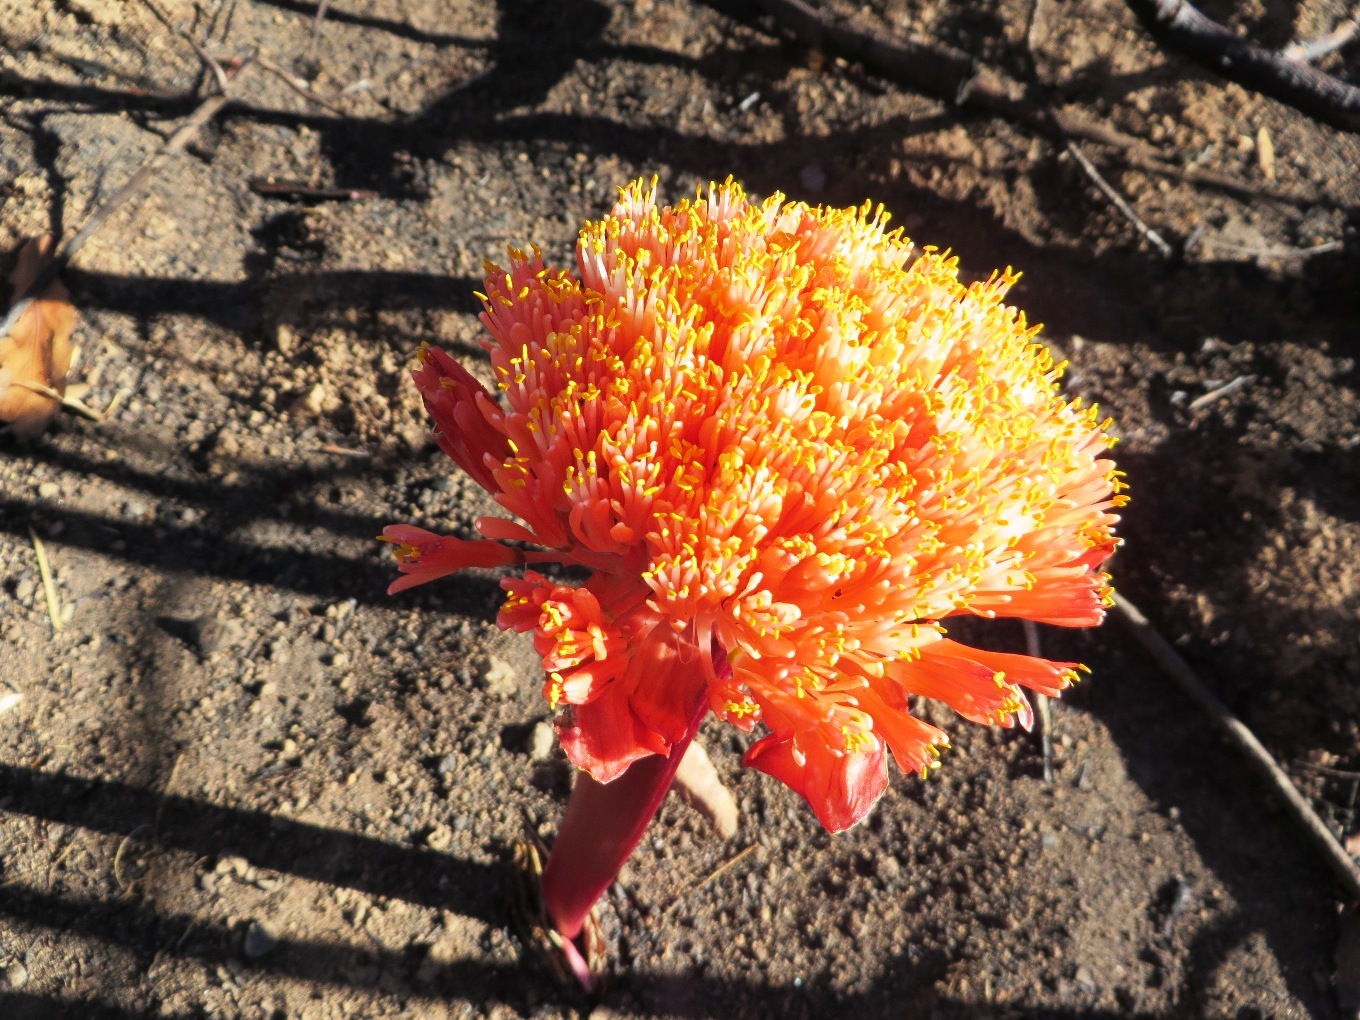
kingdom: Plantae
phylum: Tracheophyta
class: Liliopsida
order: Asparagales
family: Amaryllidaceae
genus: Haemanthus
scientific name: Haemanthus sanguineus
